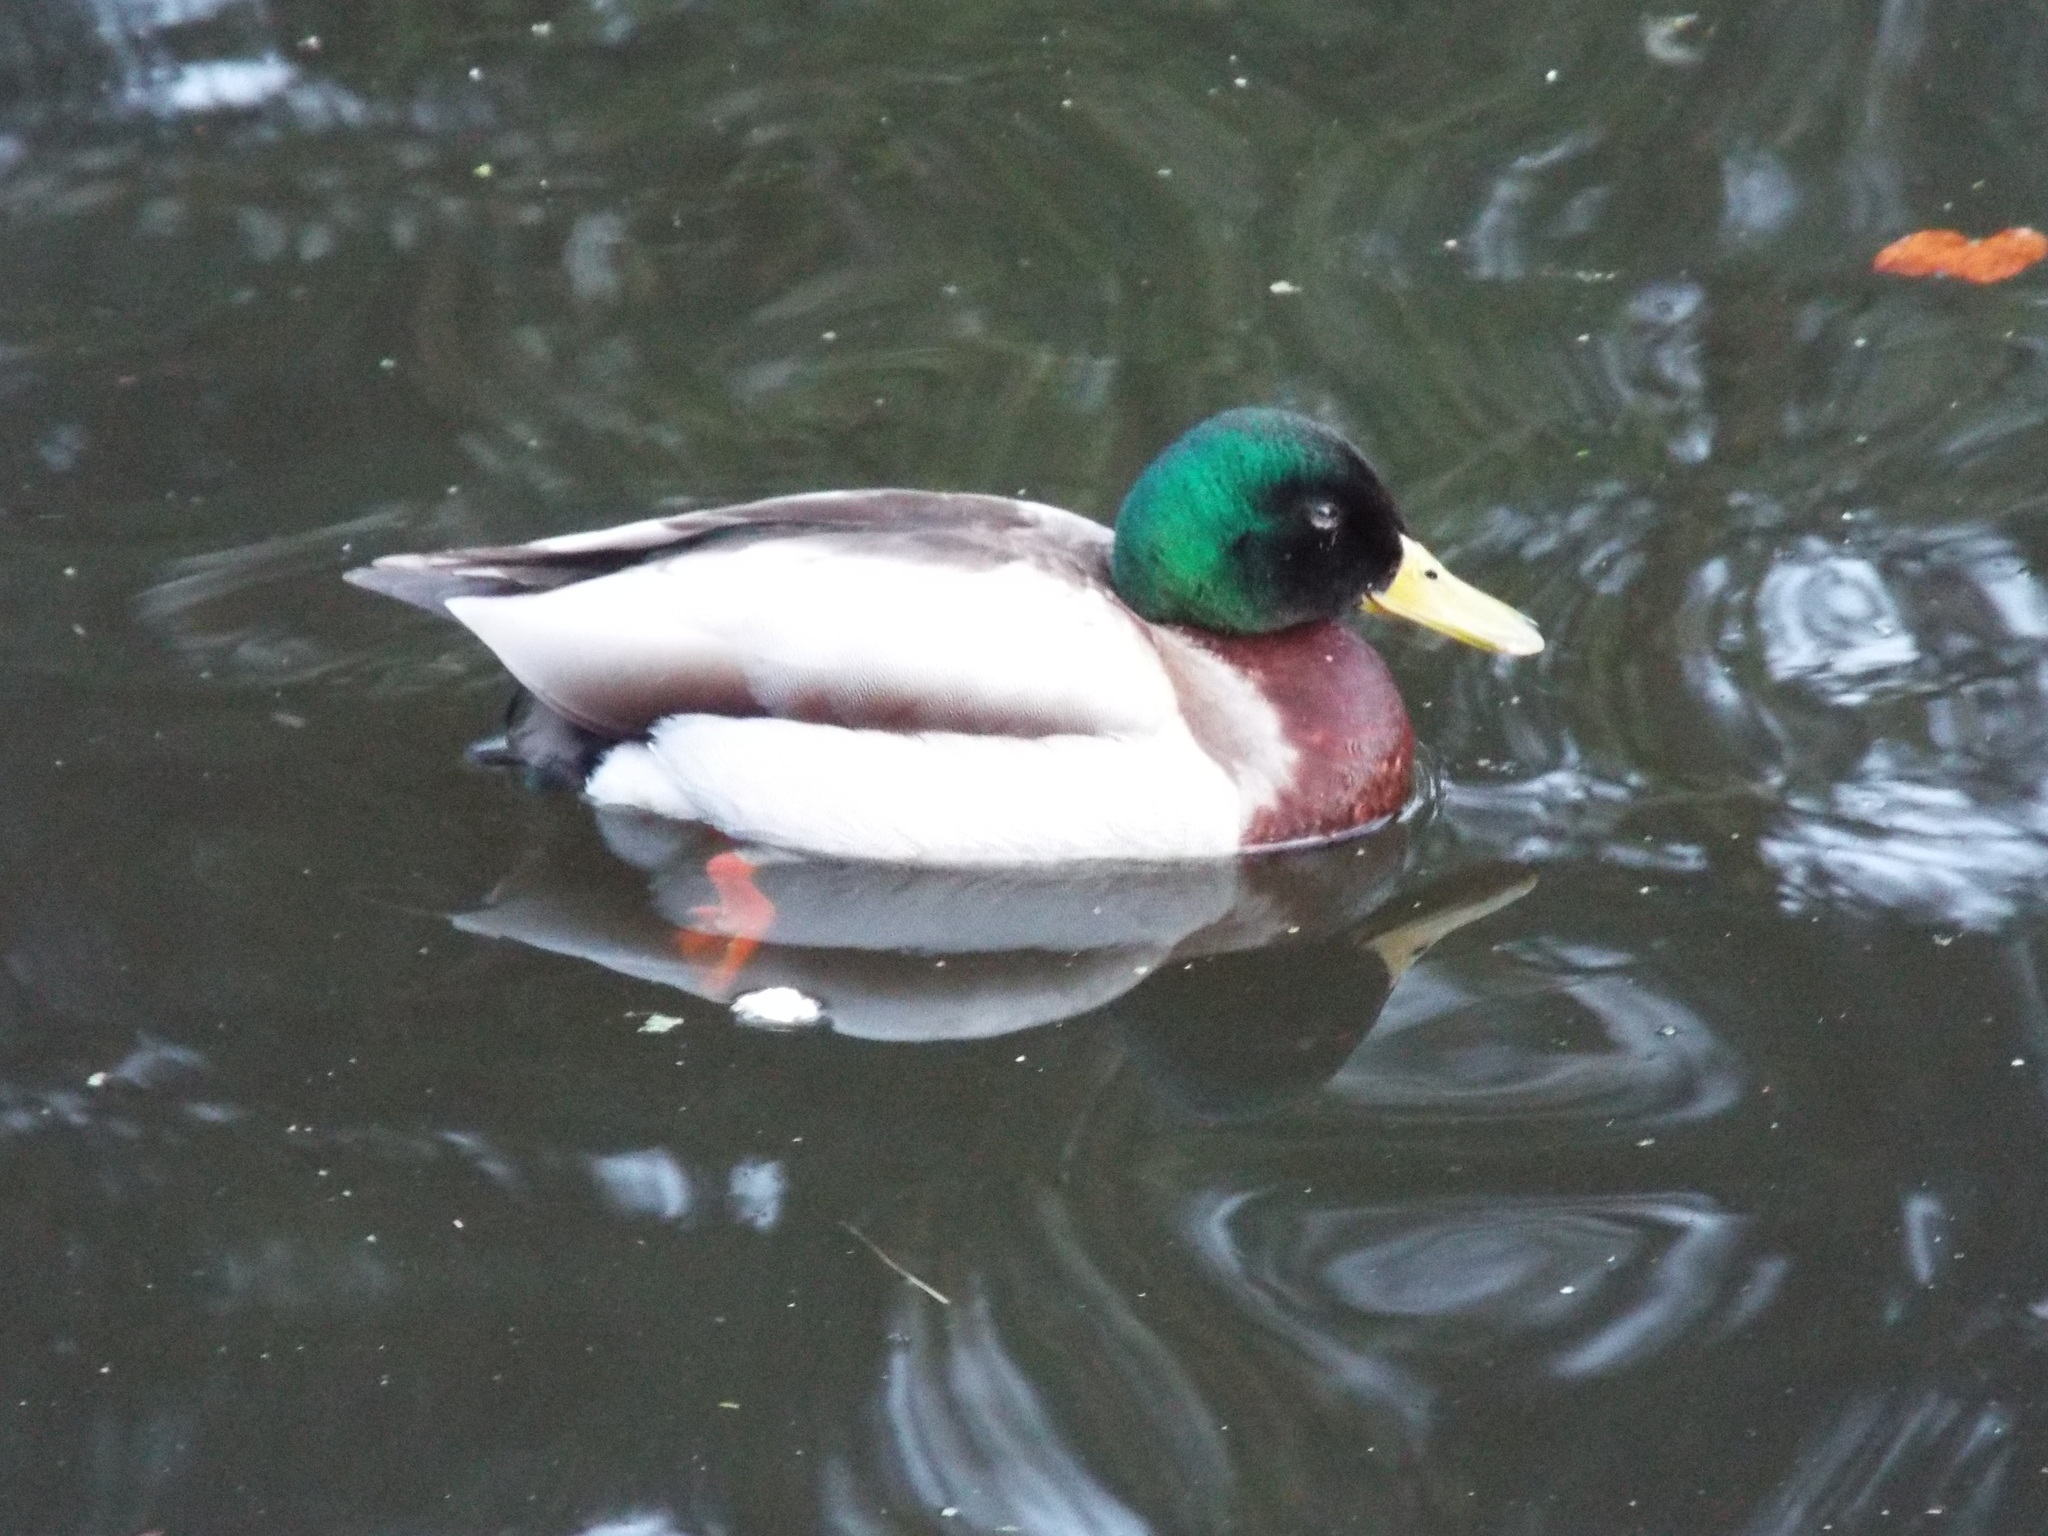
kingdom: Animalia
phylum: Chordata
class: Aves
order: Anseriformes
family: Anatidae
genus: Anas
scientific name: Anas platyrhynchos
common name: Mallard
